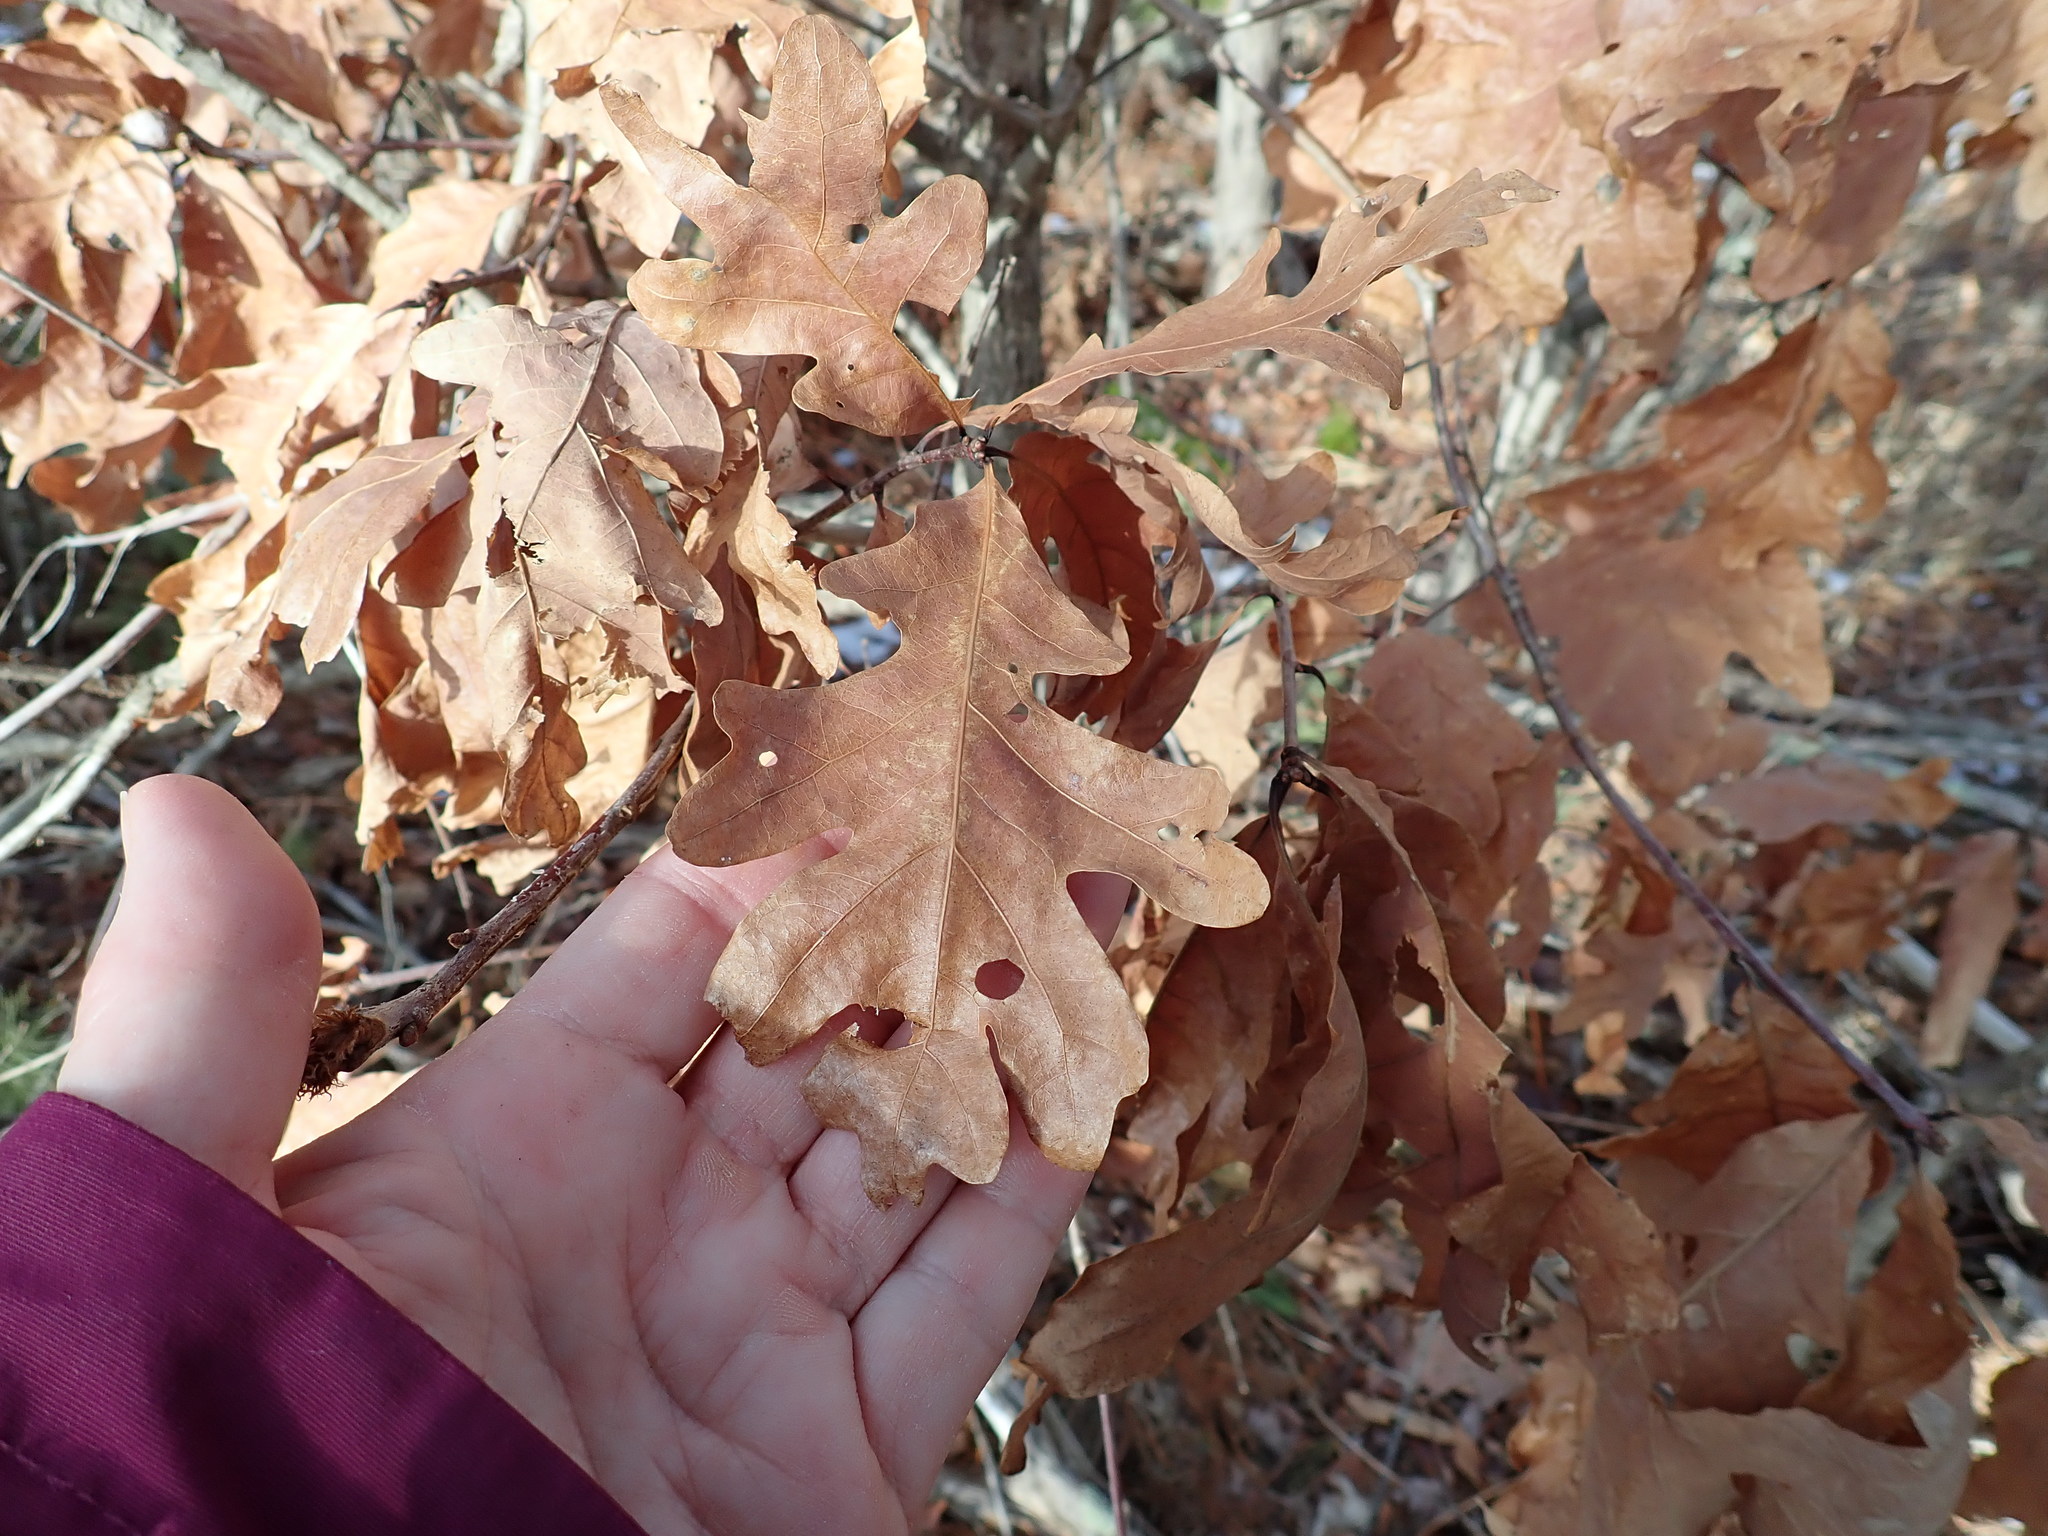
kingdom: Plantae
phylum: Tracheophyta
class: Magnoliopsida
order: Fagales
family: Fagaceae
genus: Quercus
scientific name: Quercus alba
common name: White oak
